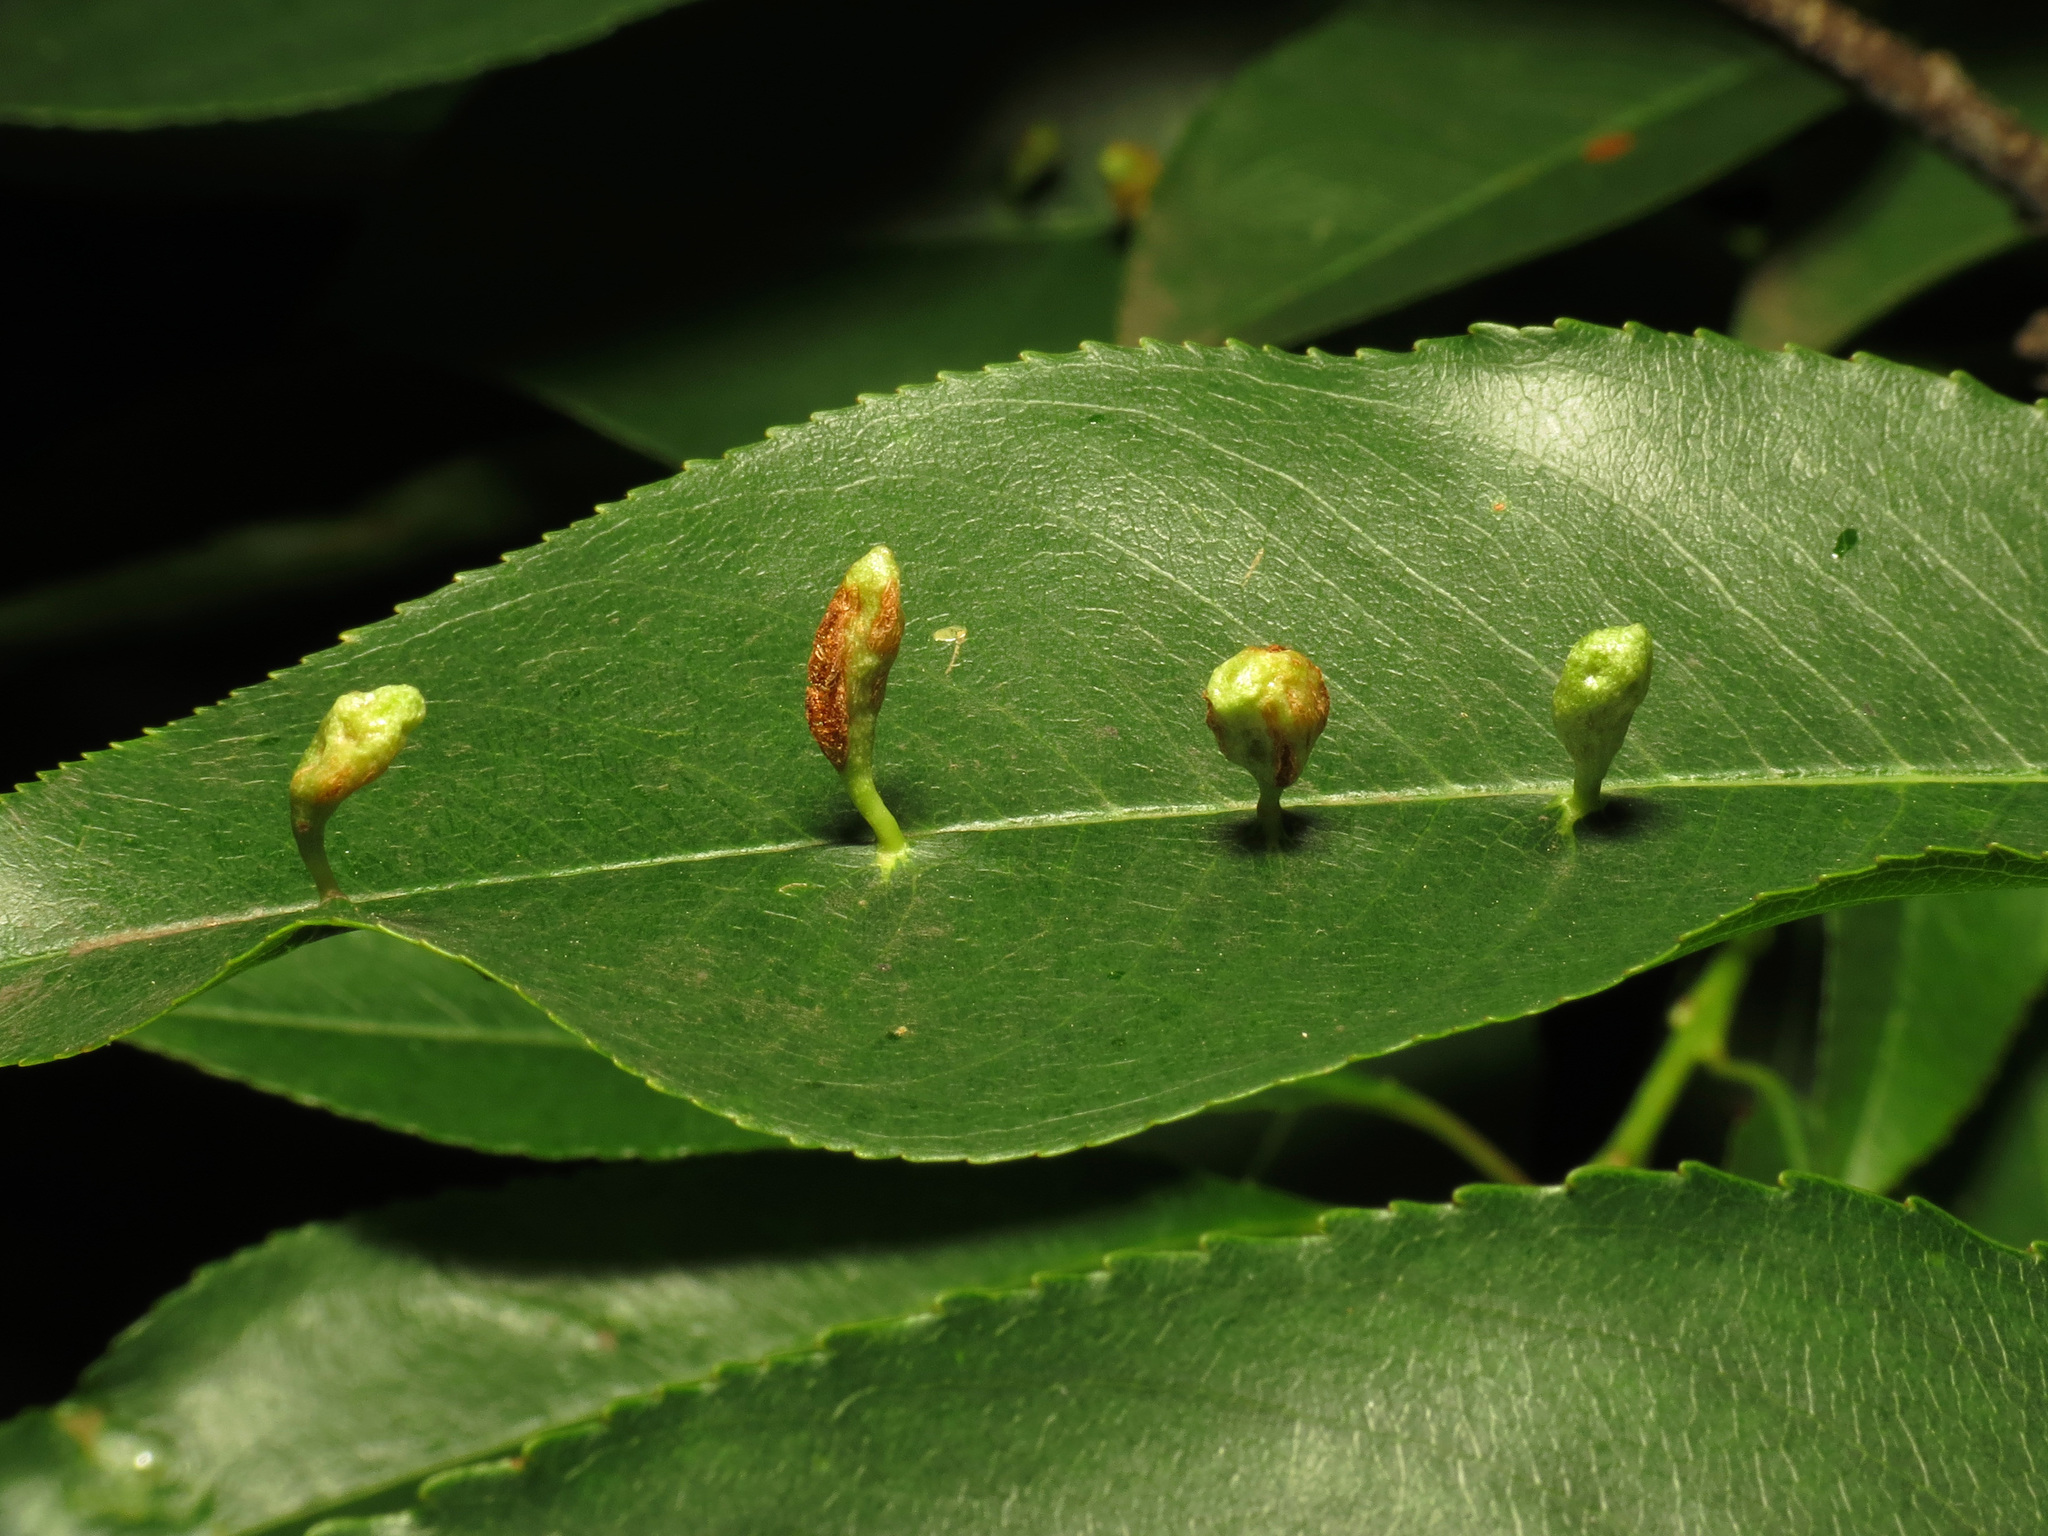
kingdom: Animalia
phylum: Arthropoda
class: Arachnida
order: Trombidiformes
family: Eriophyidae
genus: Eriophyes
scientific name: Eriophyes
